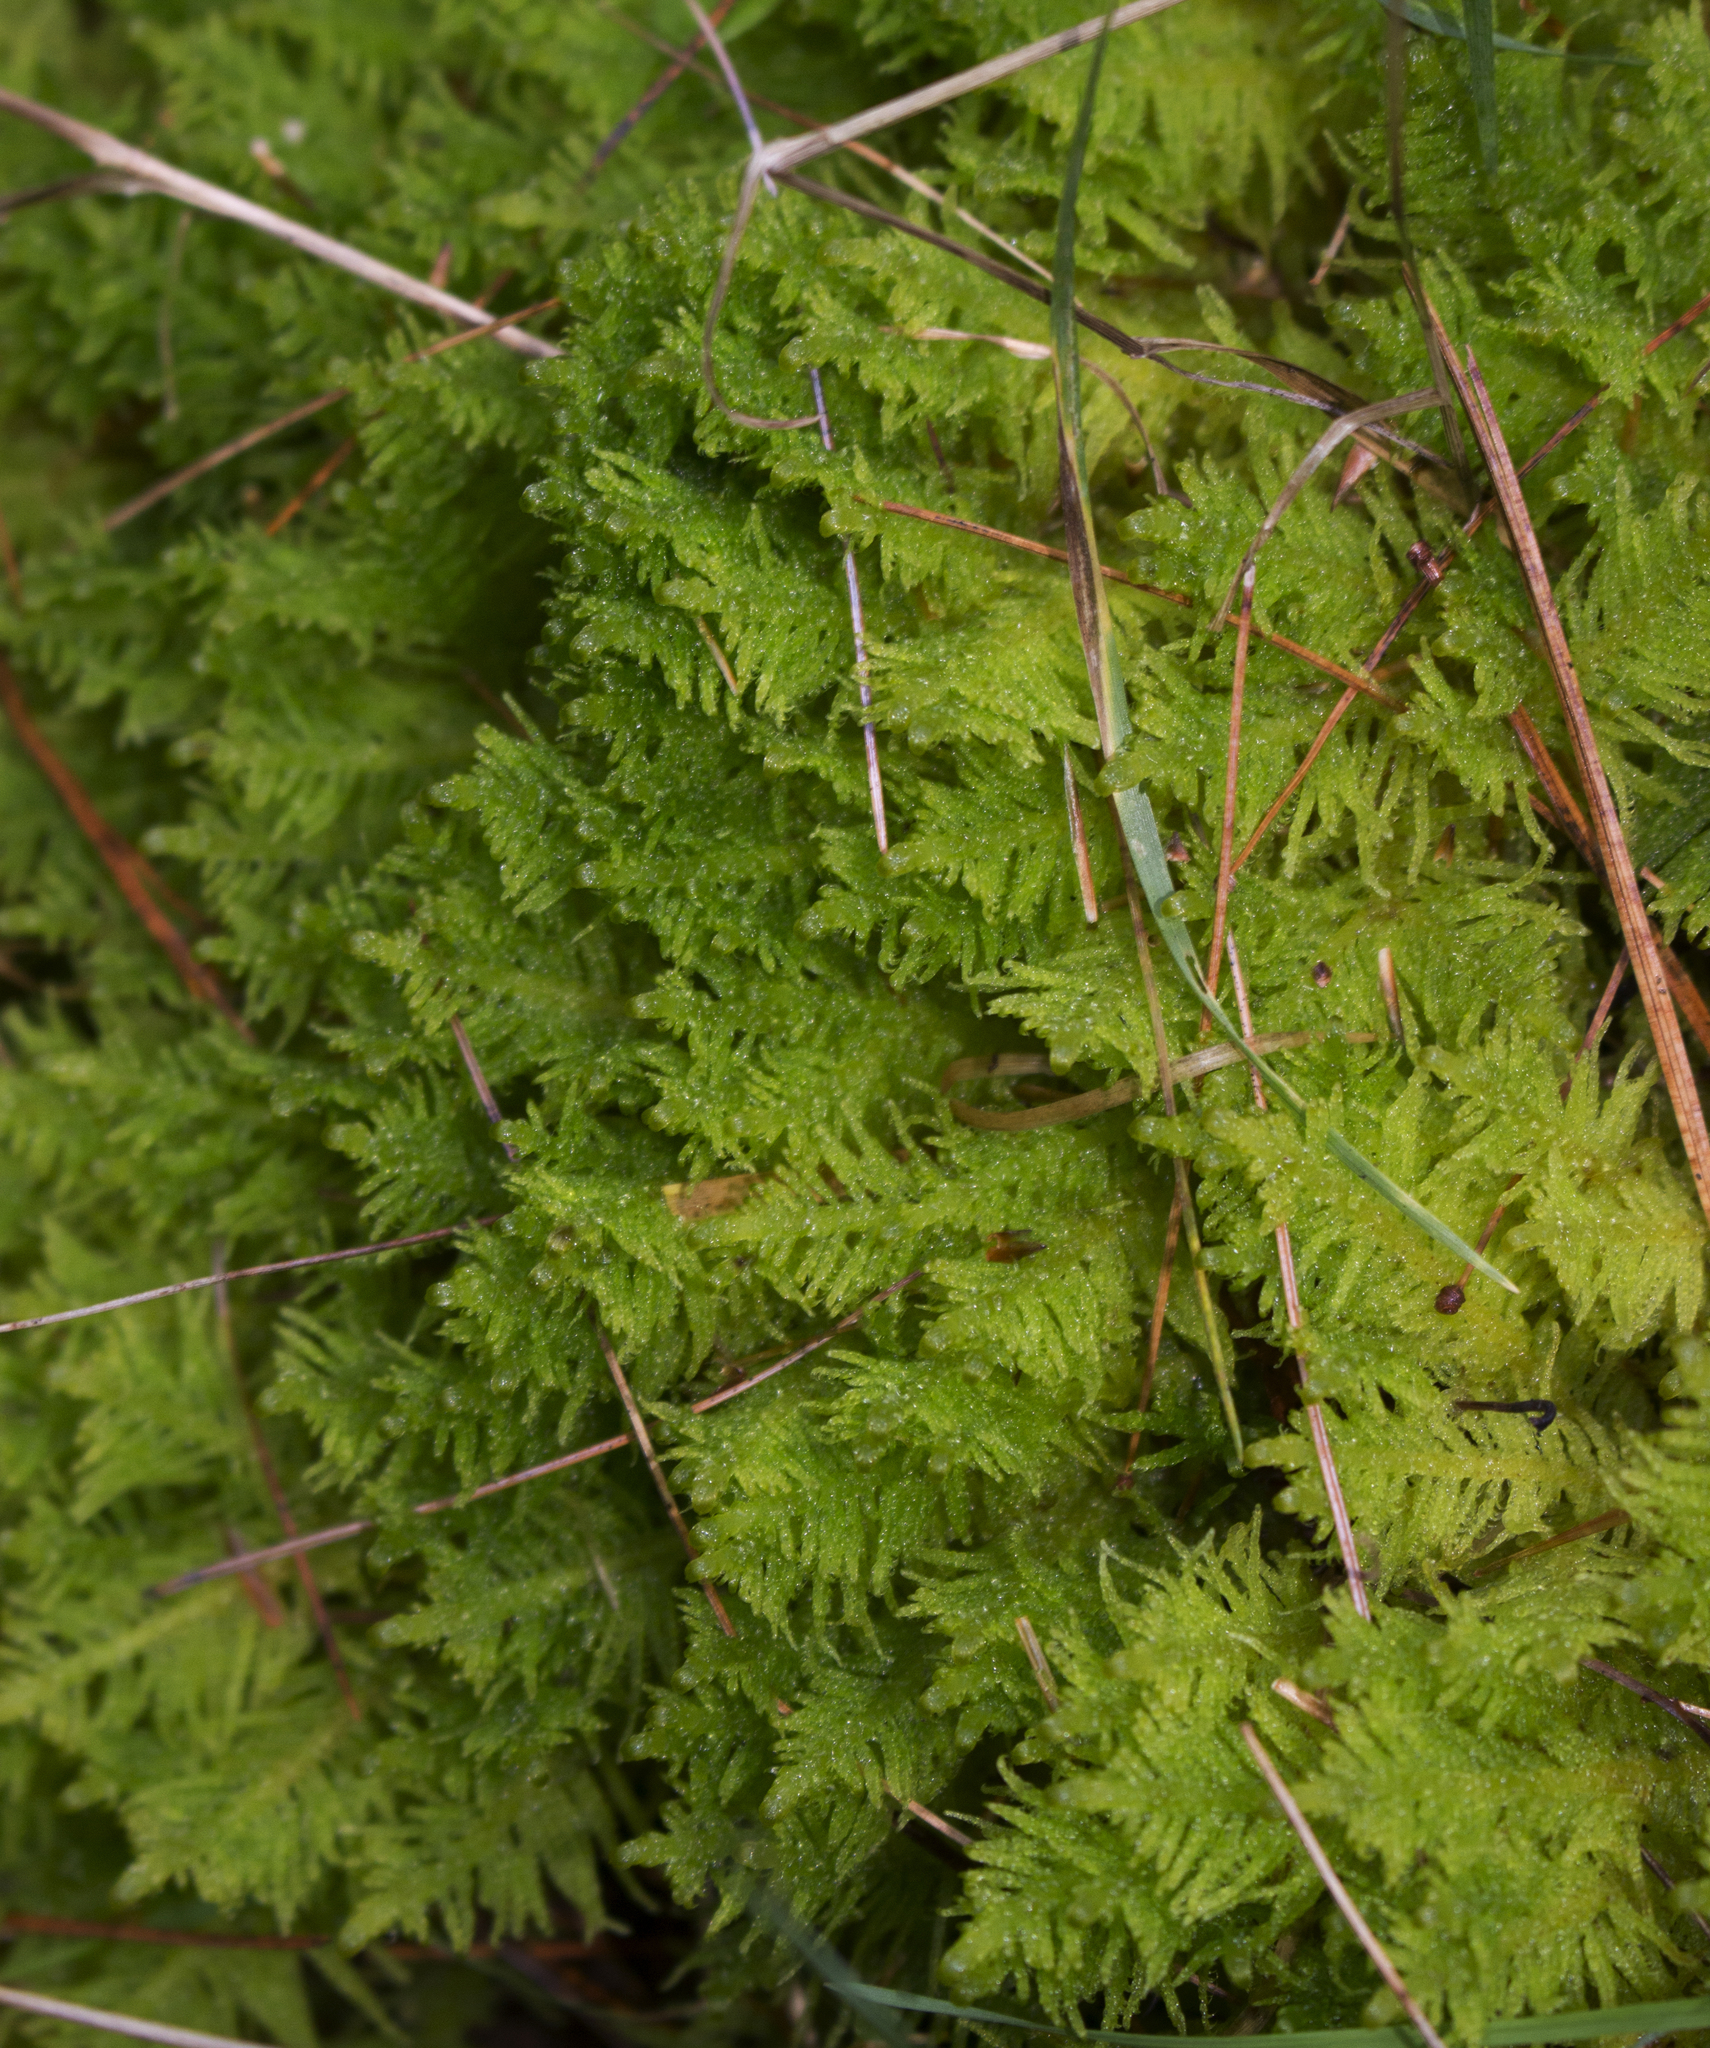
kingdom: Plantae
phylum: Bryophyta
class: Bryopsida
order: Hypnales
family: Pylaisiaceae
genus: Ptilium
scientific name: Ptilium crista-castrensis
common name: Knight's plume moss
